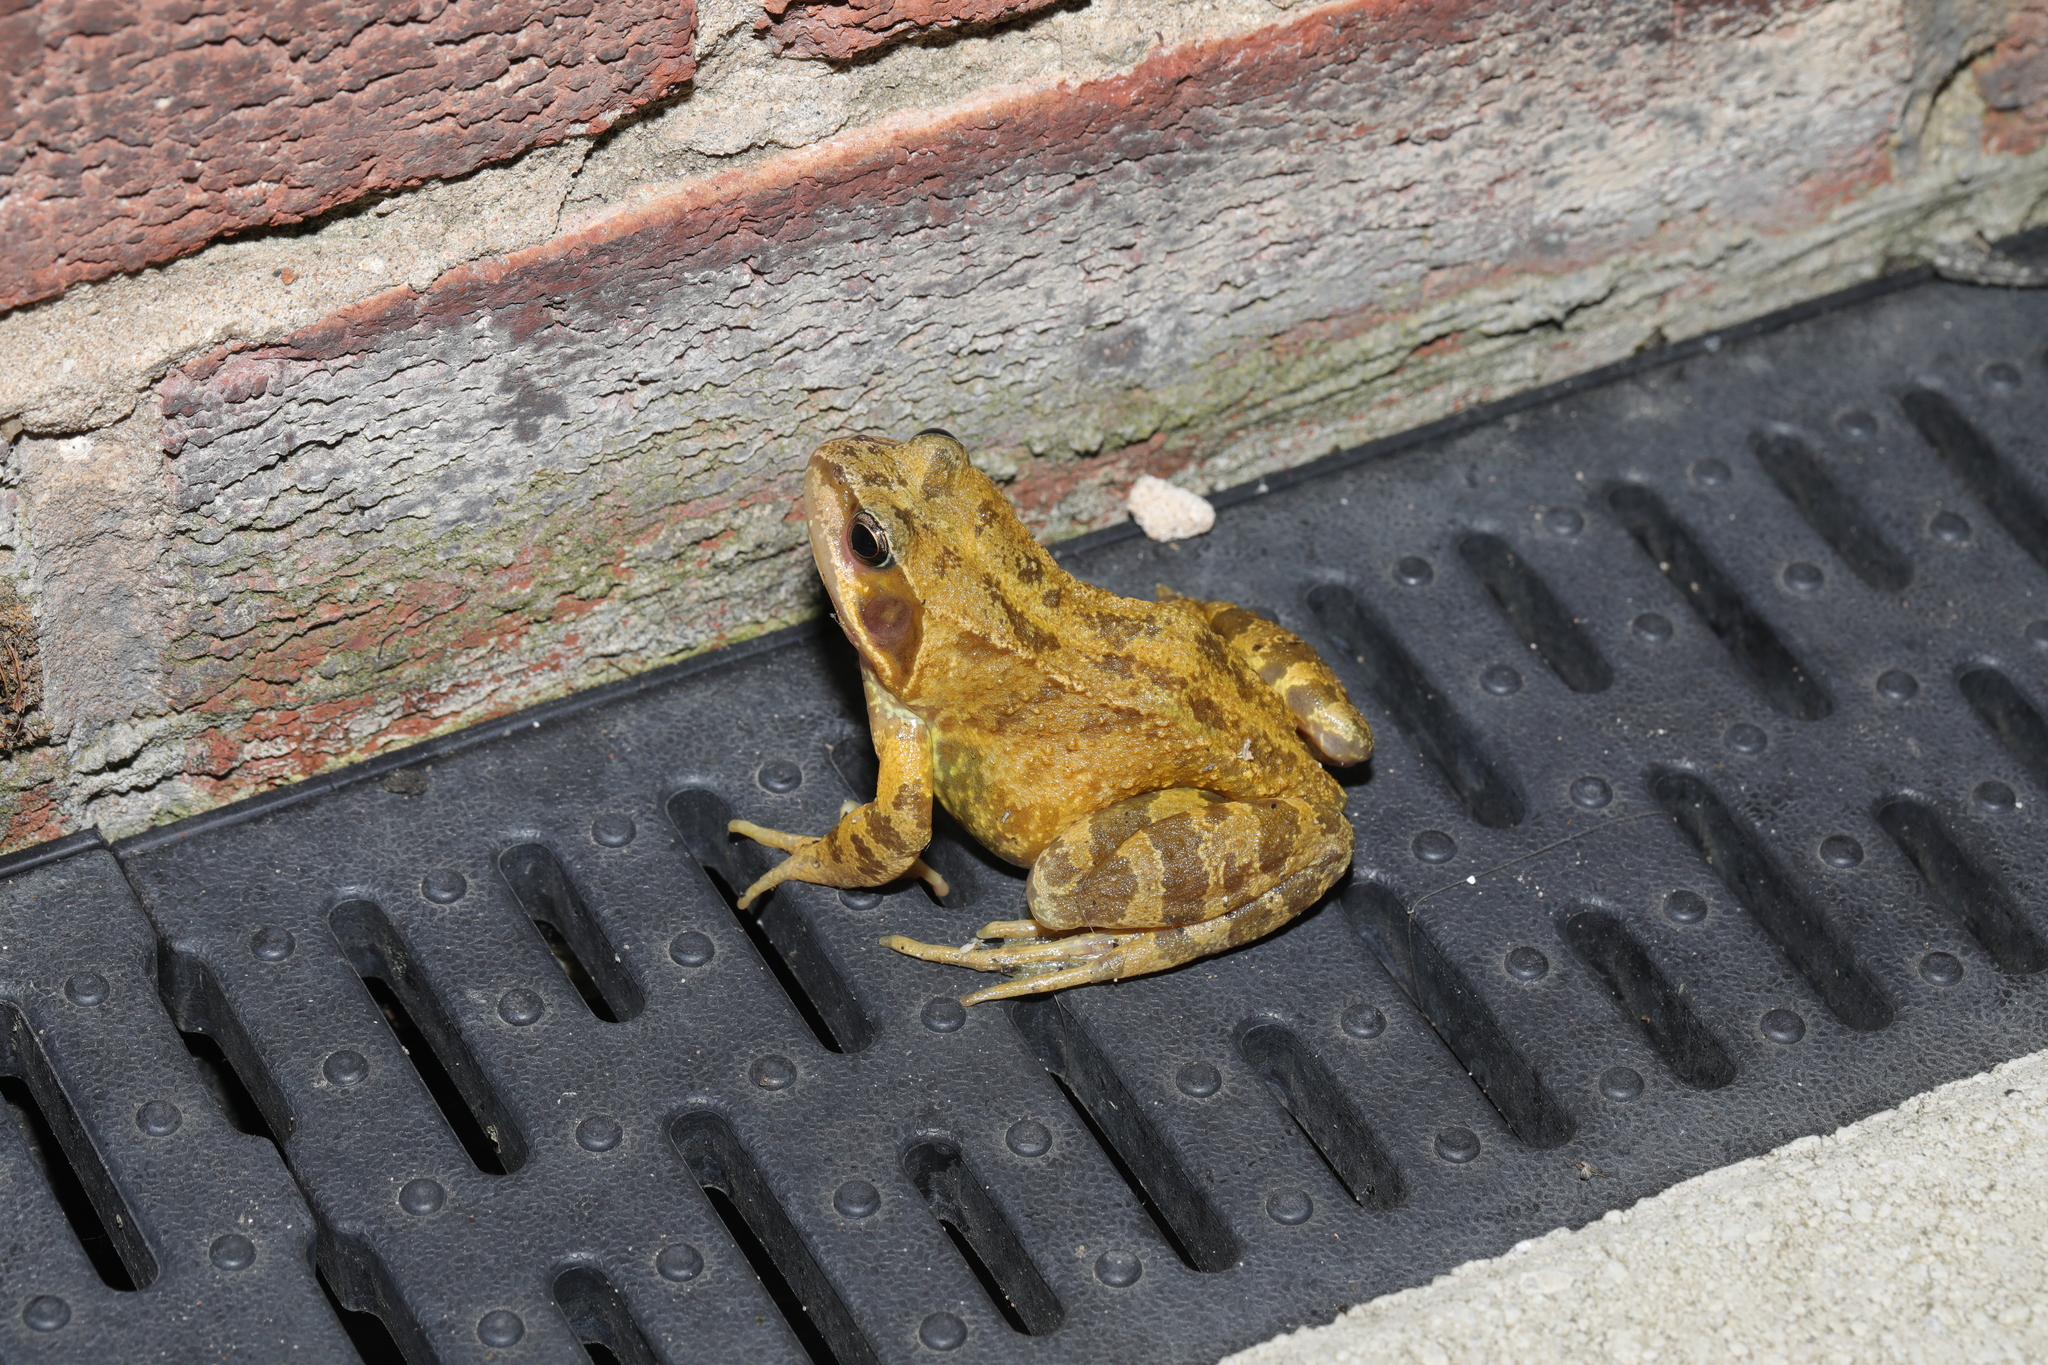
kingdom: Animalia
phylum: Chordata
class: Amphibia
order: Anura
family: Ranidae
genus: Rana
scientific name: Rana temporaria
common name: Common frog
